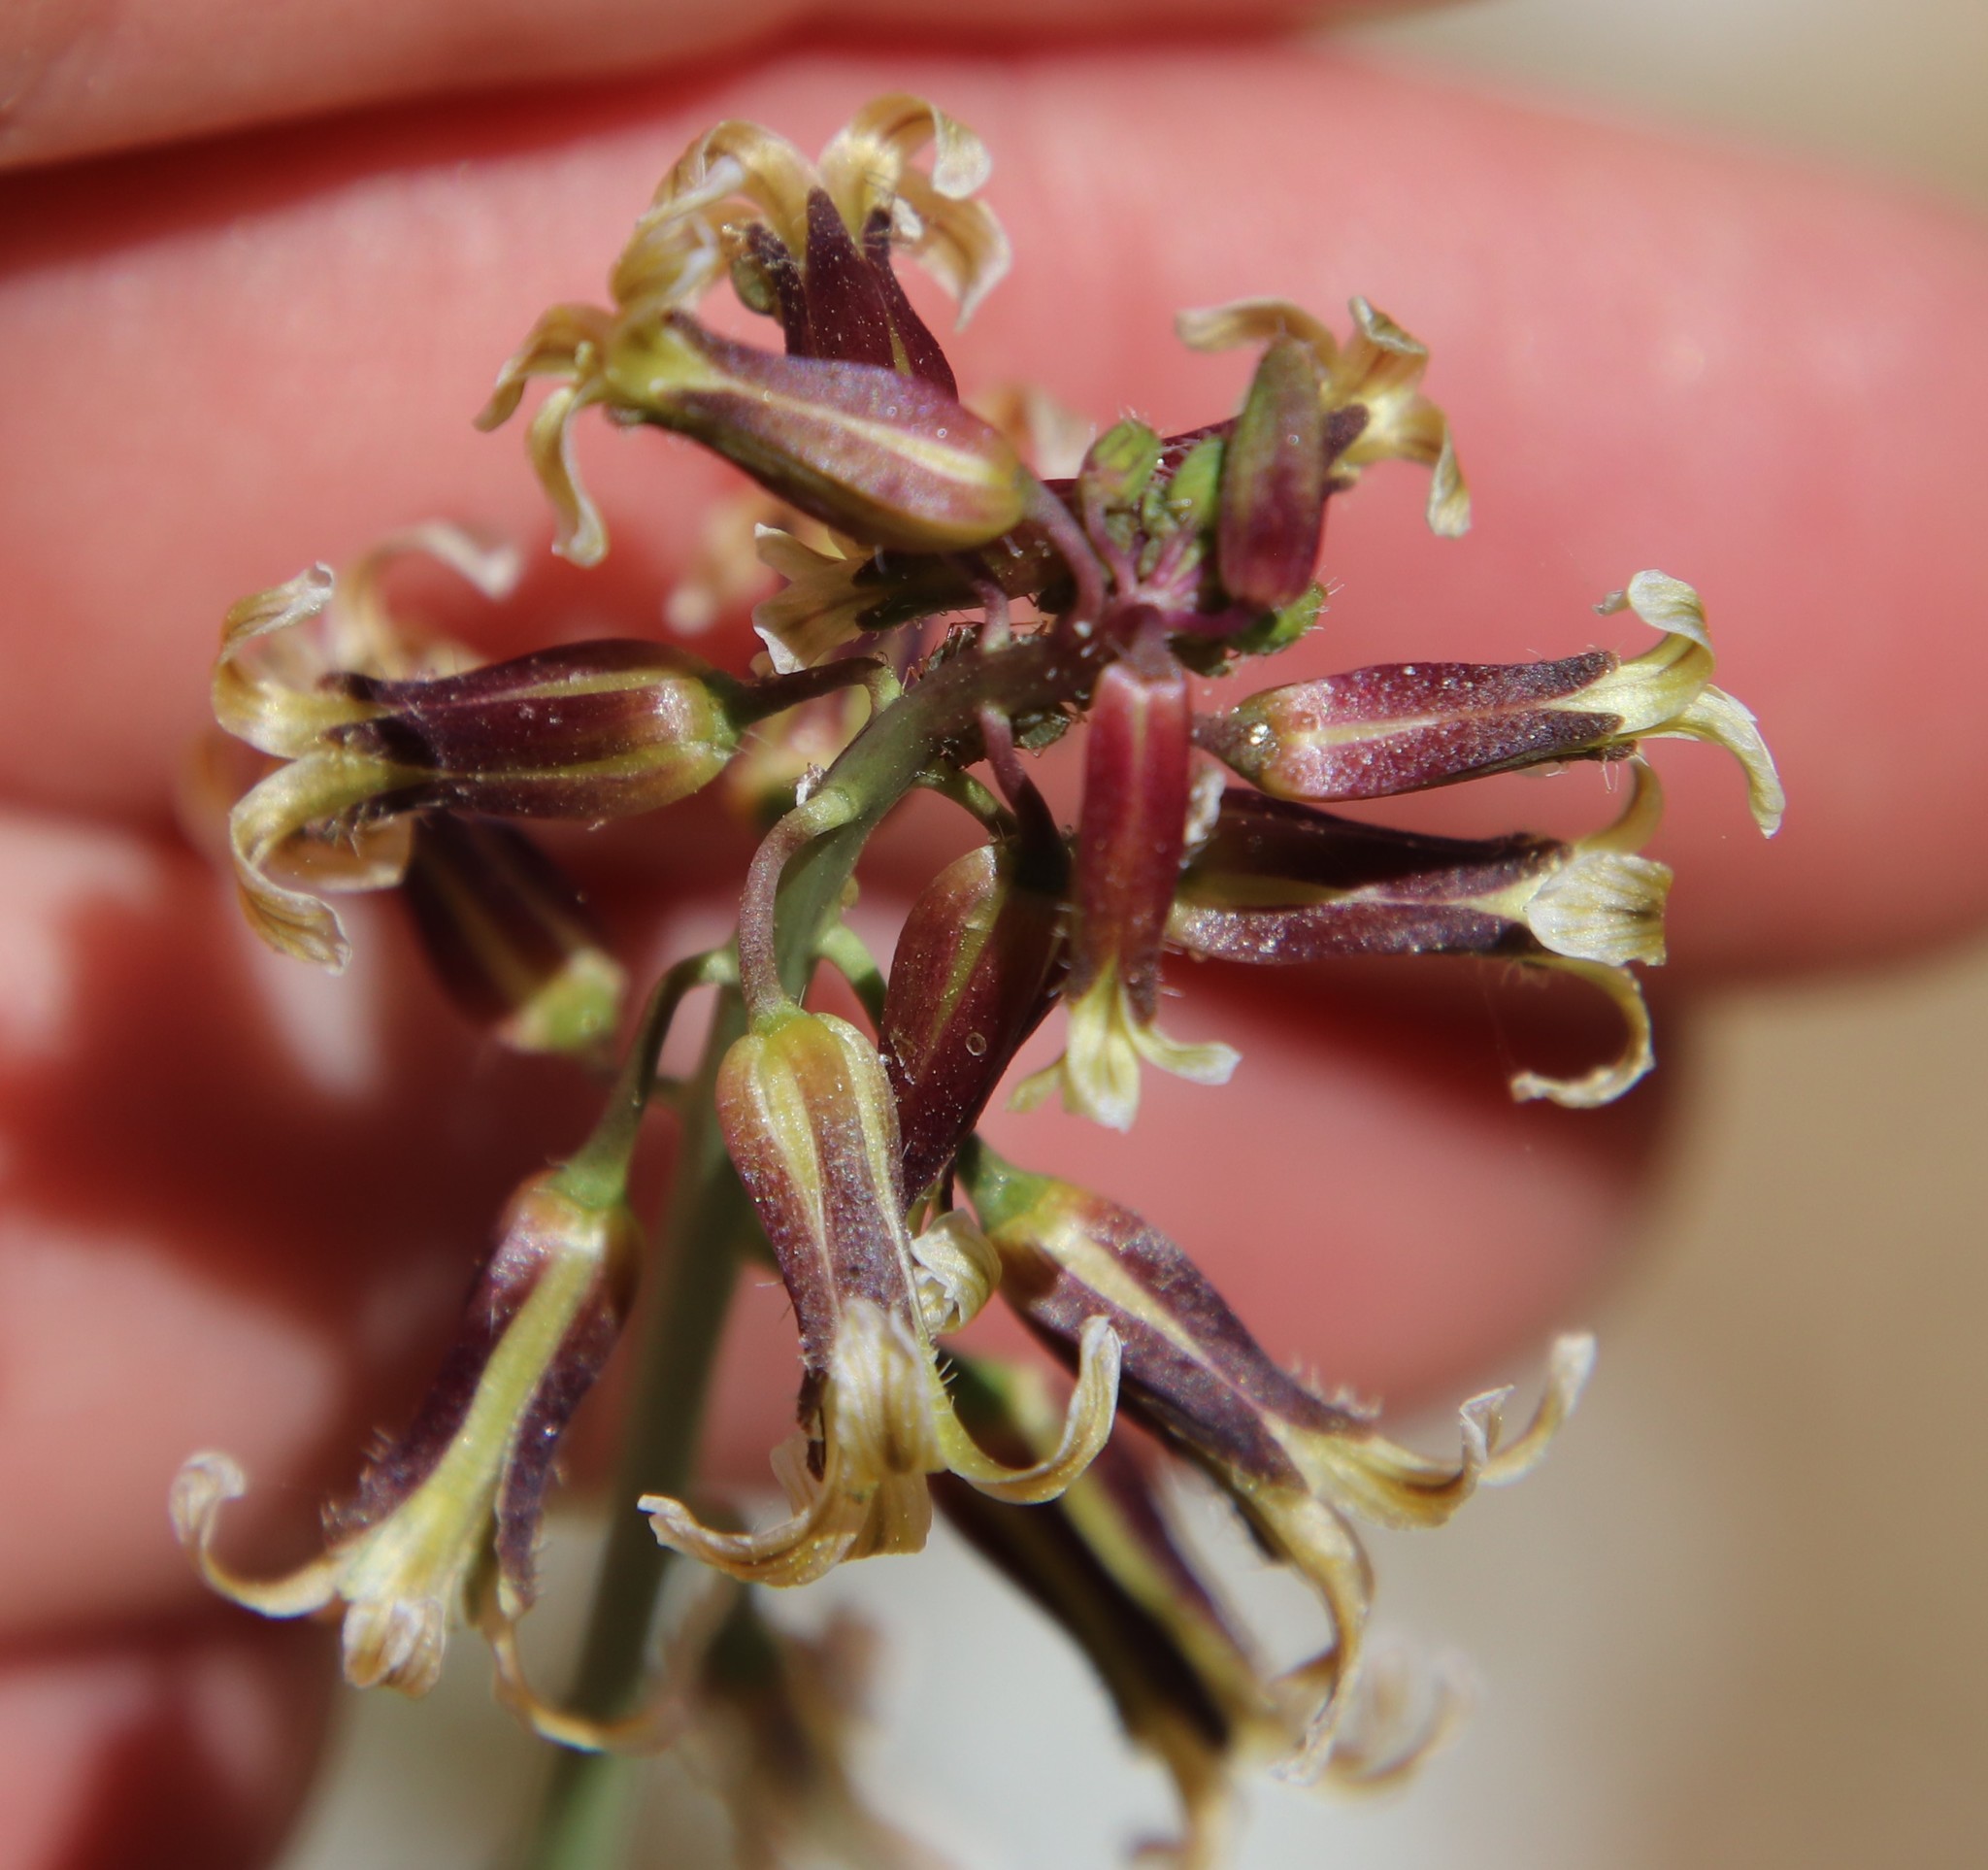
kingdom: Plantae
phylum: Tracheophyta
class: Magnoliopsida
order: Brassicales
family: Brassicaceae
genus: Streptanthus
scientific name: Streptanthus heterophyllus
